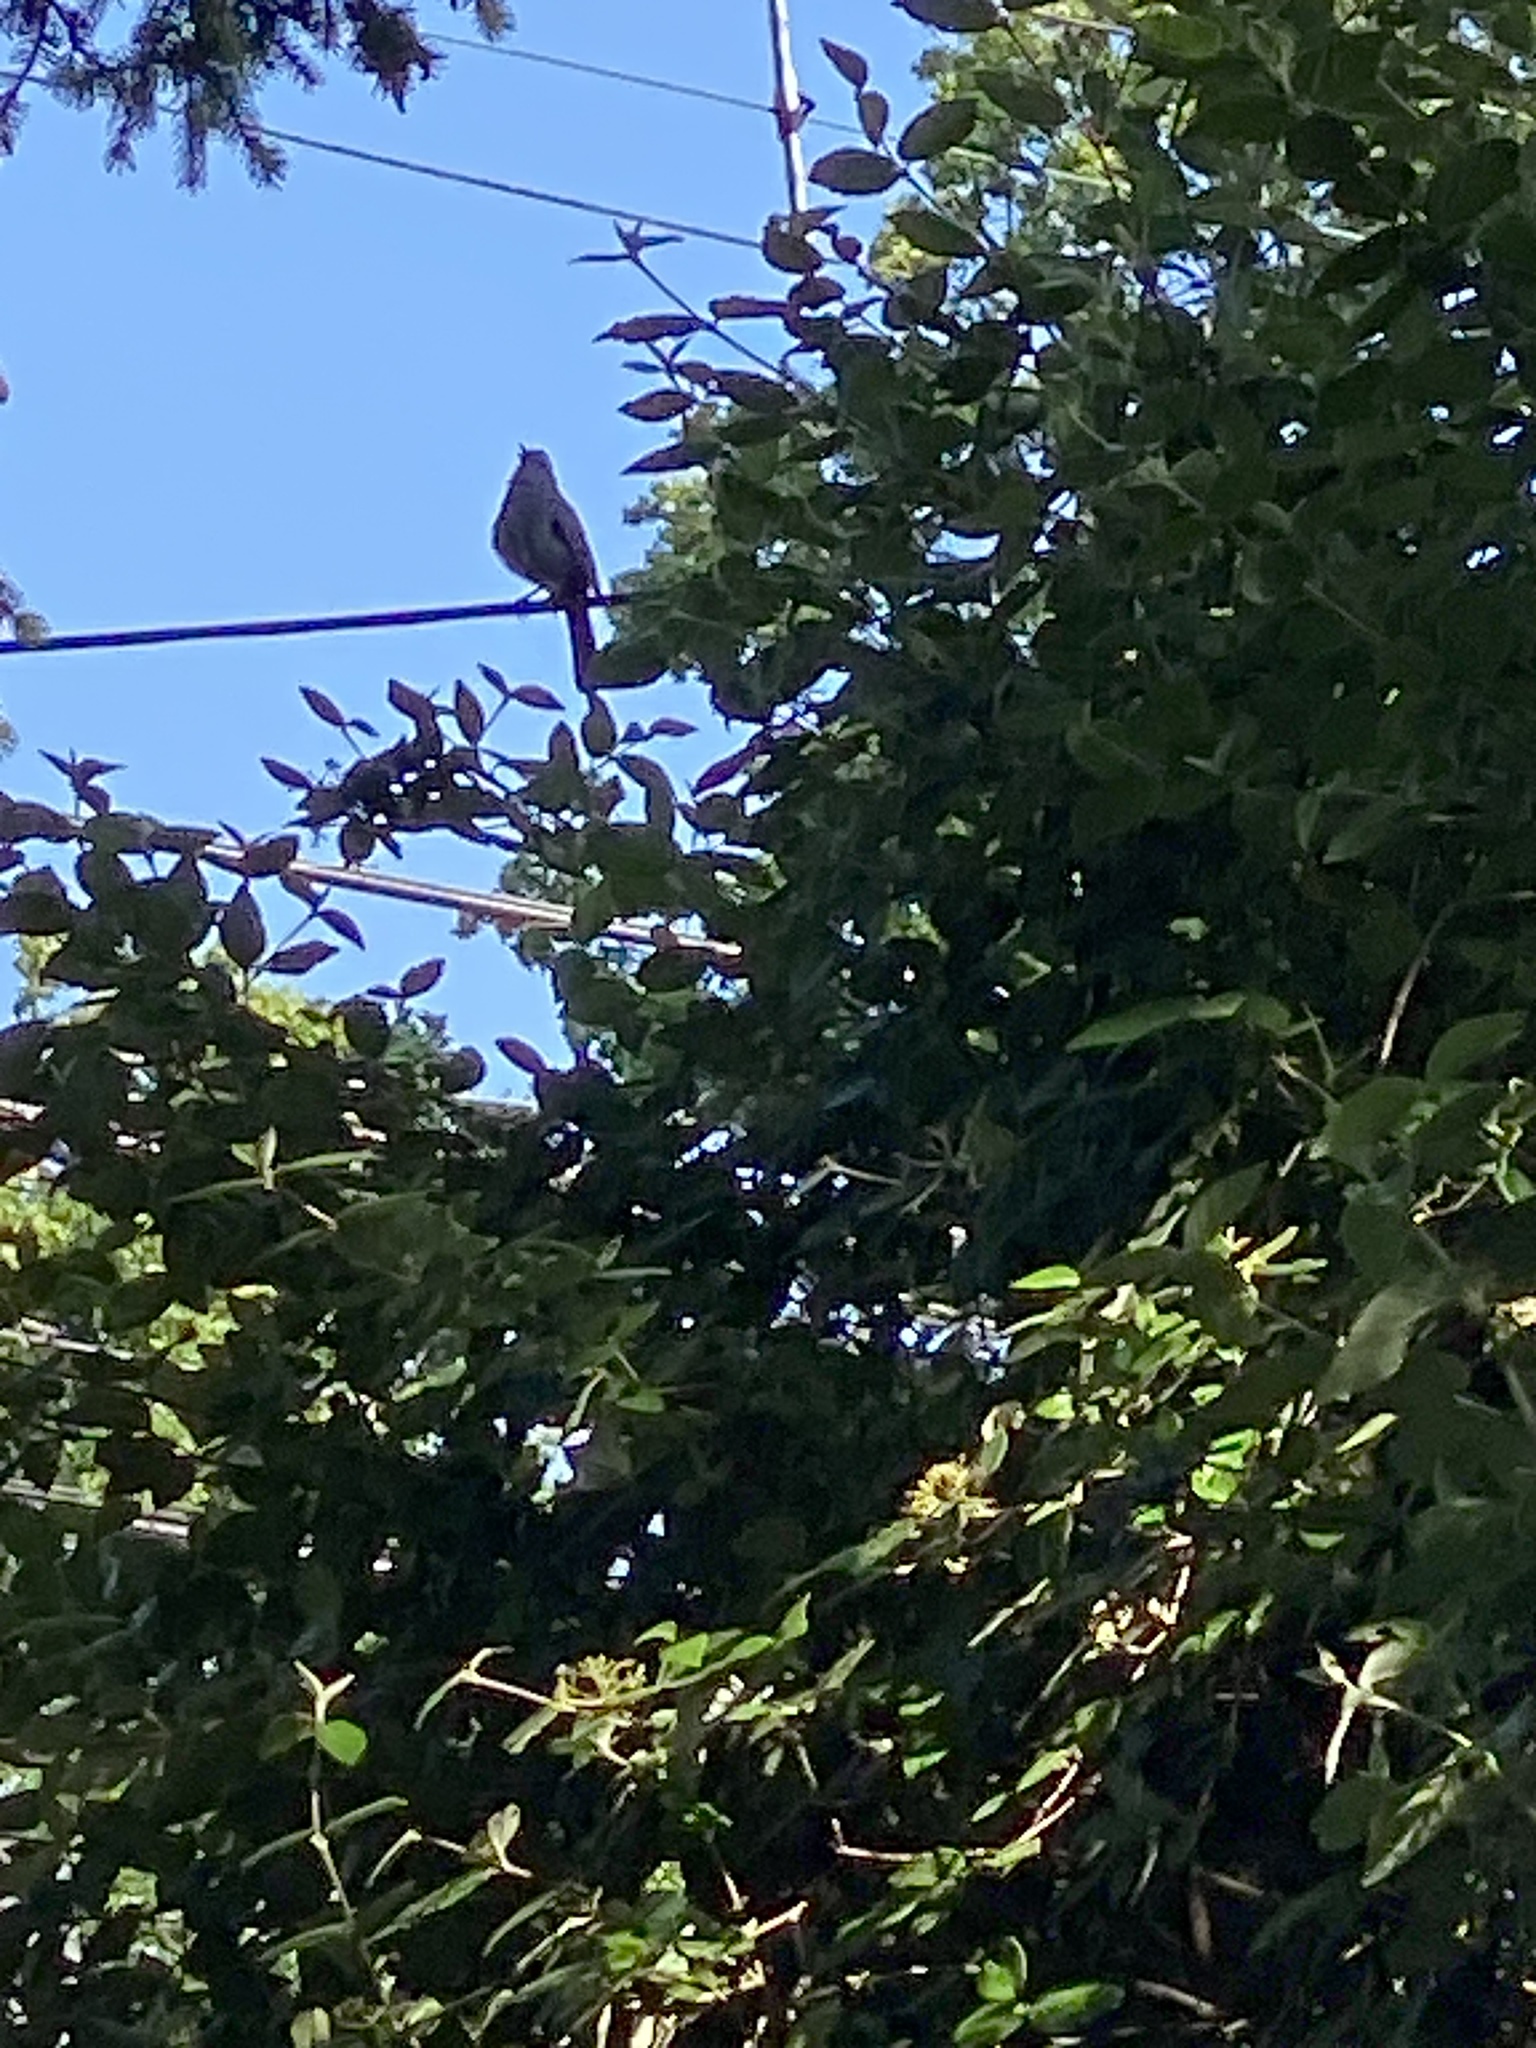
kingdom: Animalia
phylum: Chordata
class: Aves
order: Passeriformes
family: Mimidae
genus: Dumetella
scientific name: Dumetella carolinensis
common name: Gray catbird
